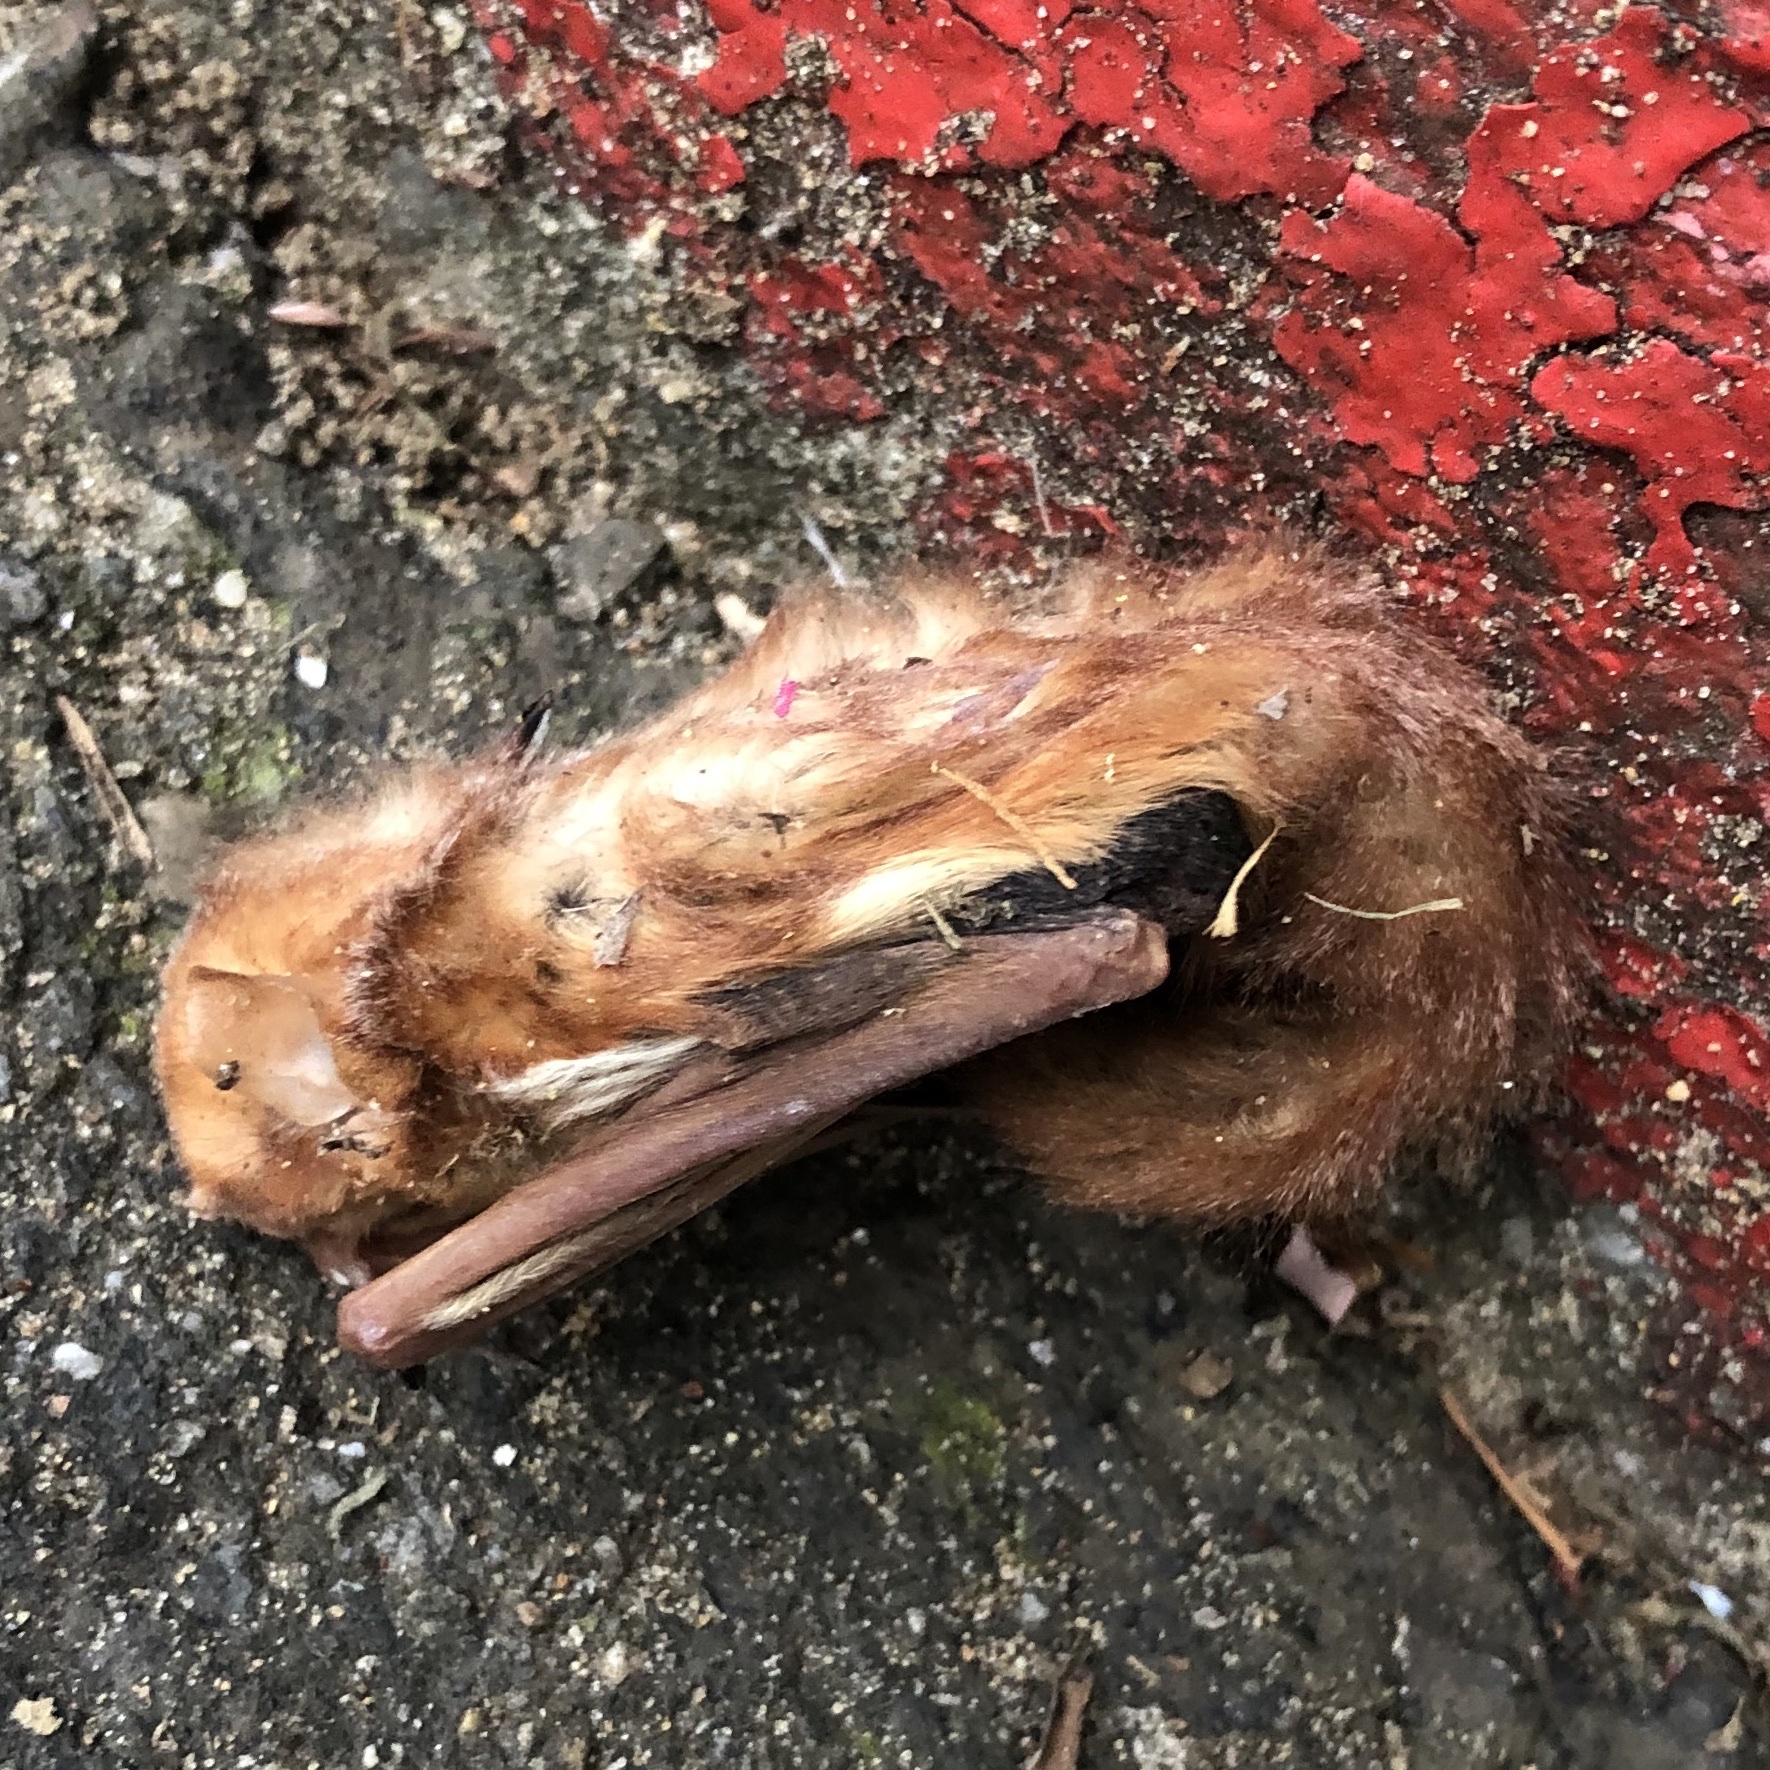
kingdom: Animalia
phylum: Chordata
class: Mammalia
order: Chiroptera
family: Vespertilionidae
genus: Lasiurus
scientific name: Lasiurus borealis
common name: Eastern red bat
